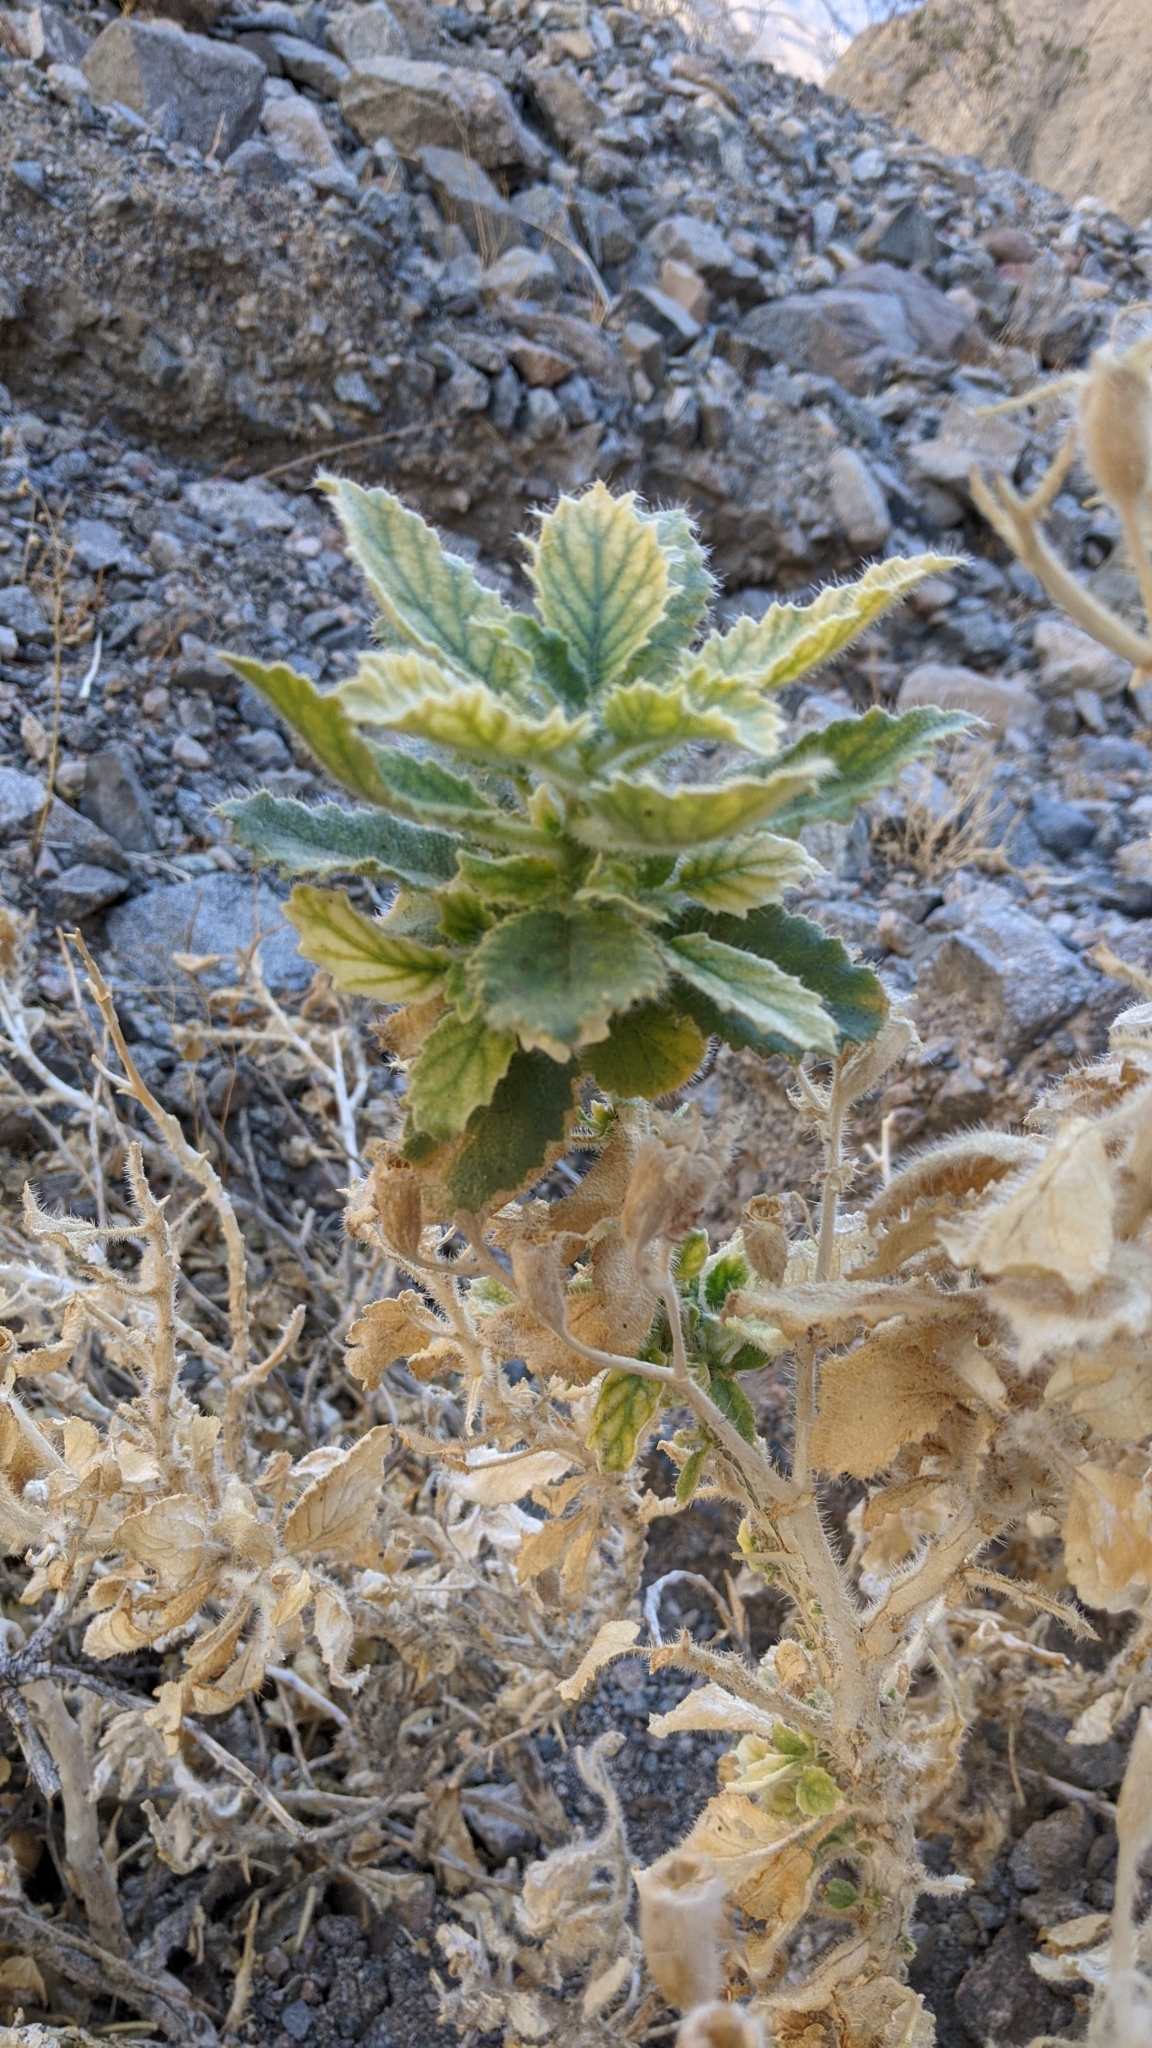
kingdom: Plantae
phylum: Tracheophyta
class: Magnoliopsida
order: Cornales
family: Loasaceae
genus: Eucnide
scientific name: Eucnide urens
